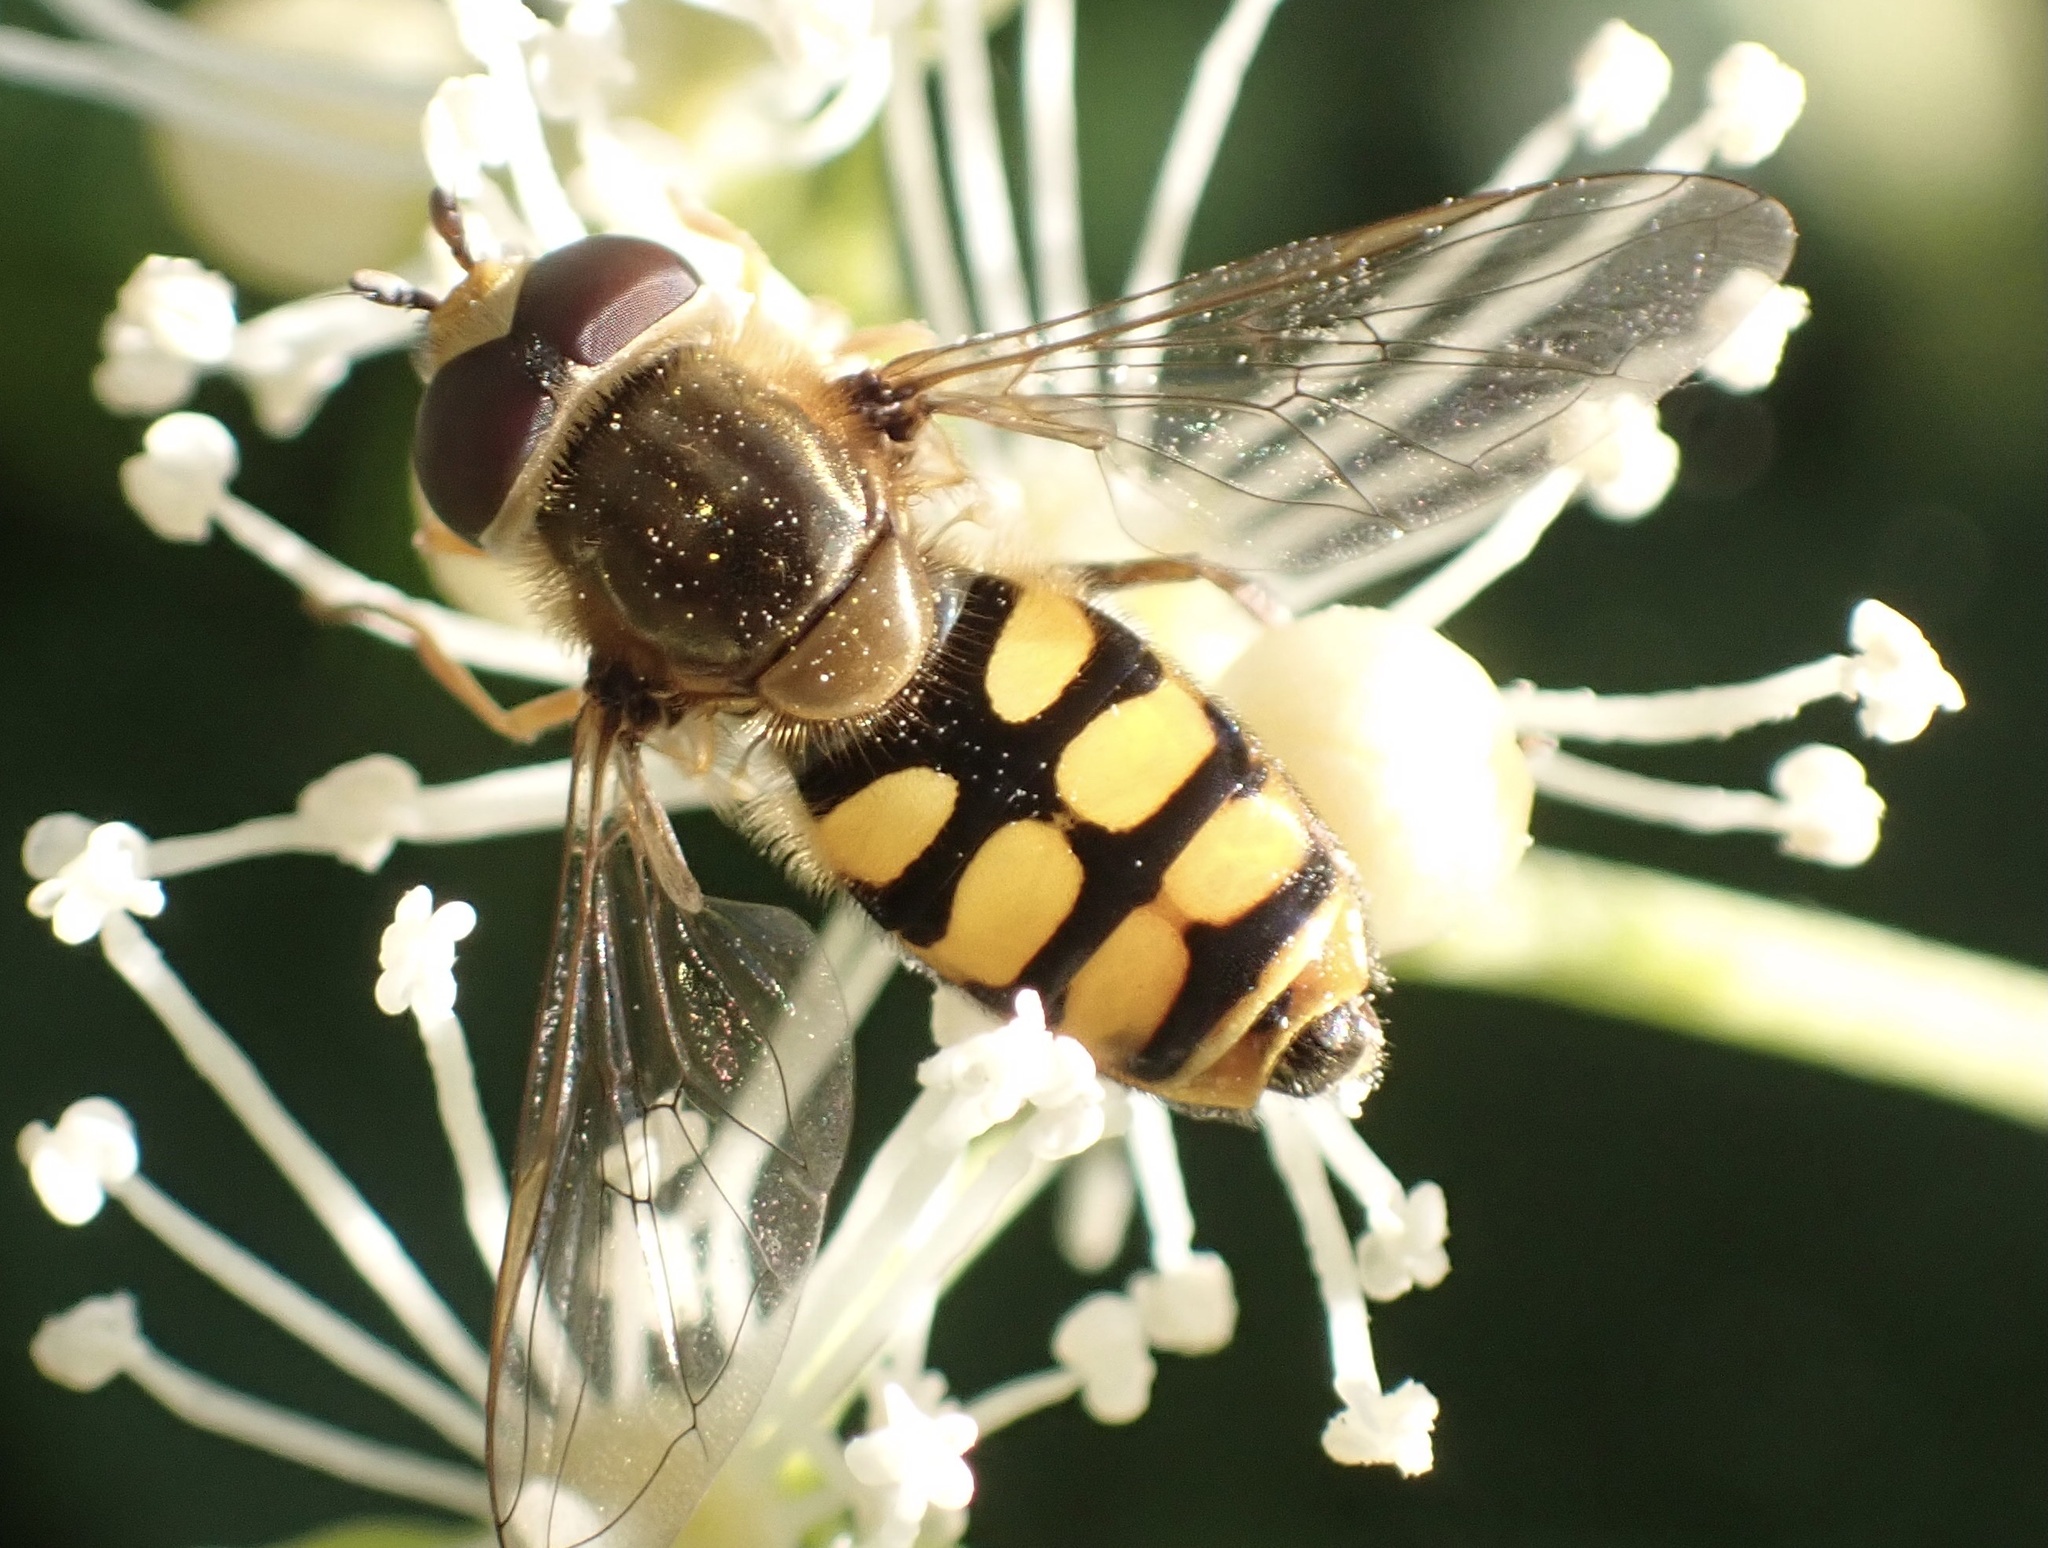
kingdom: Animalia
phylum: Arthropoda
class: Insecta
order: Diptera
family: Syrphidae
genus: Eupeodes
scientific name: Eupeodes corollae
